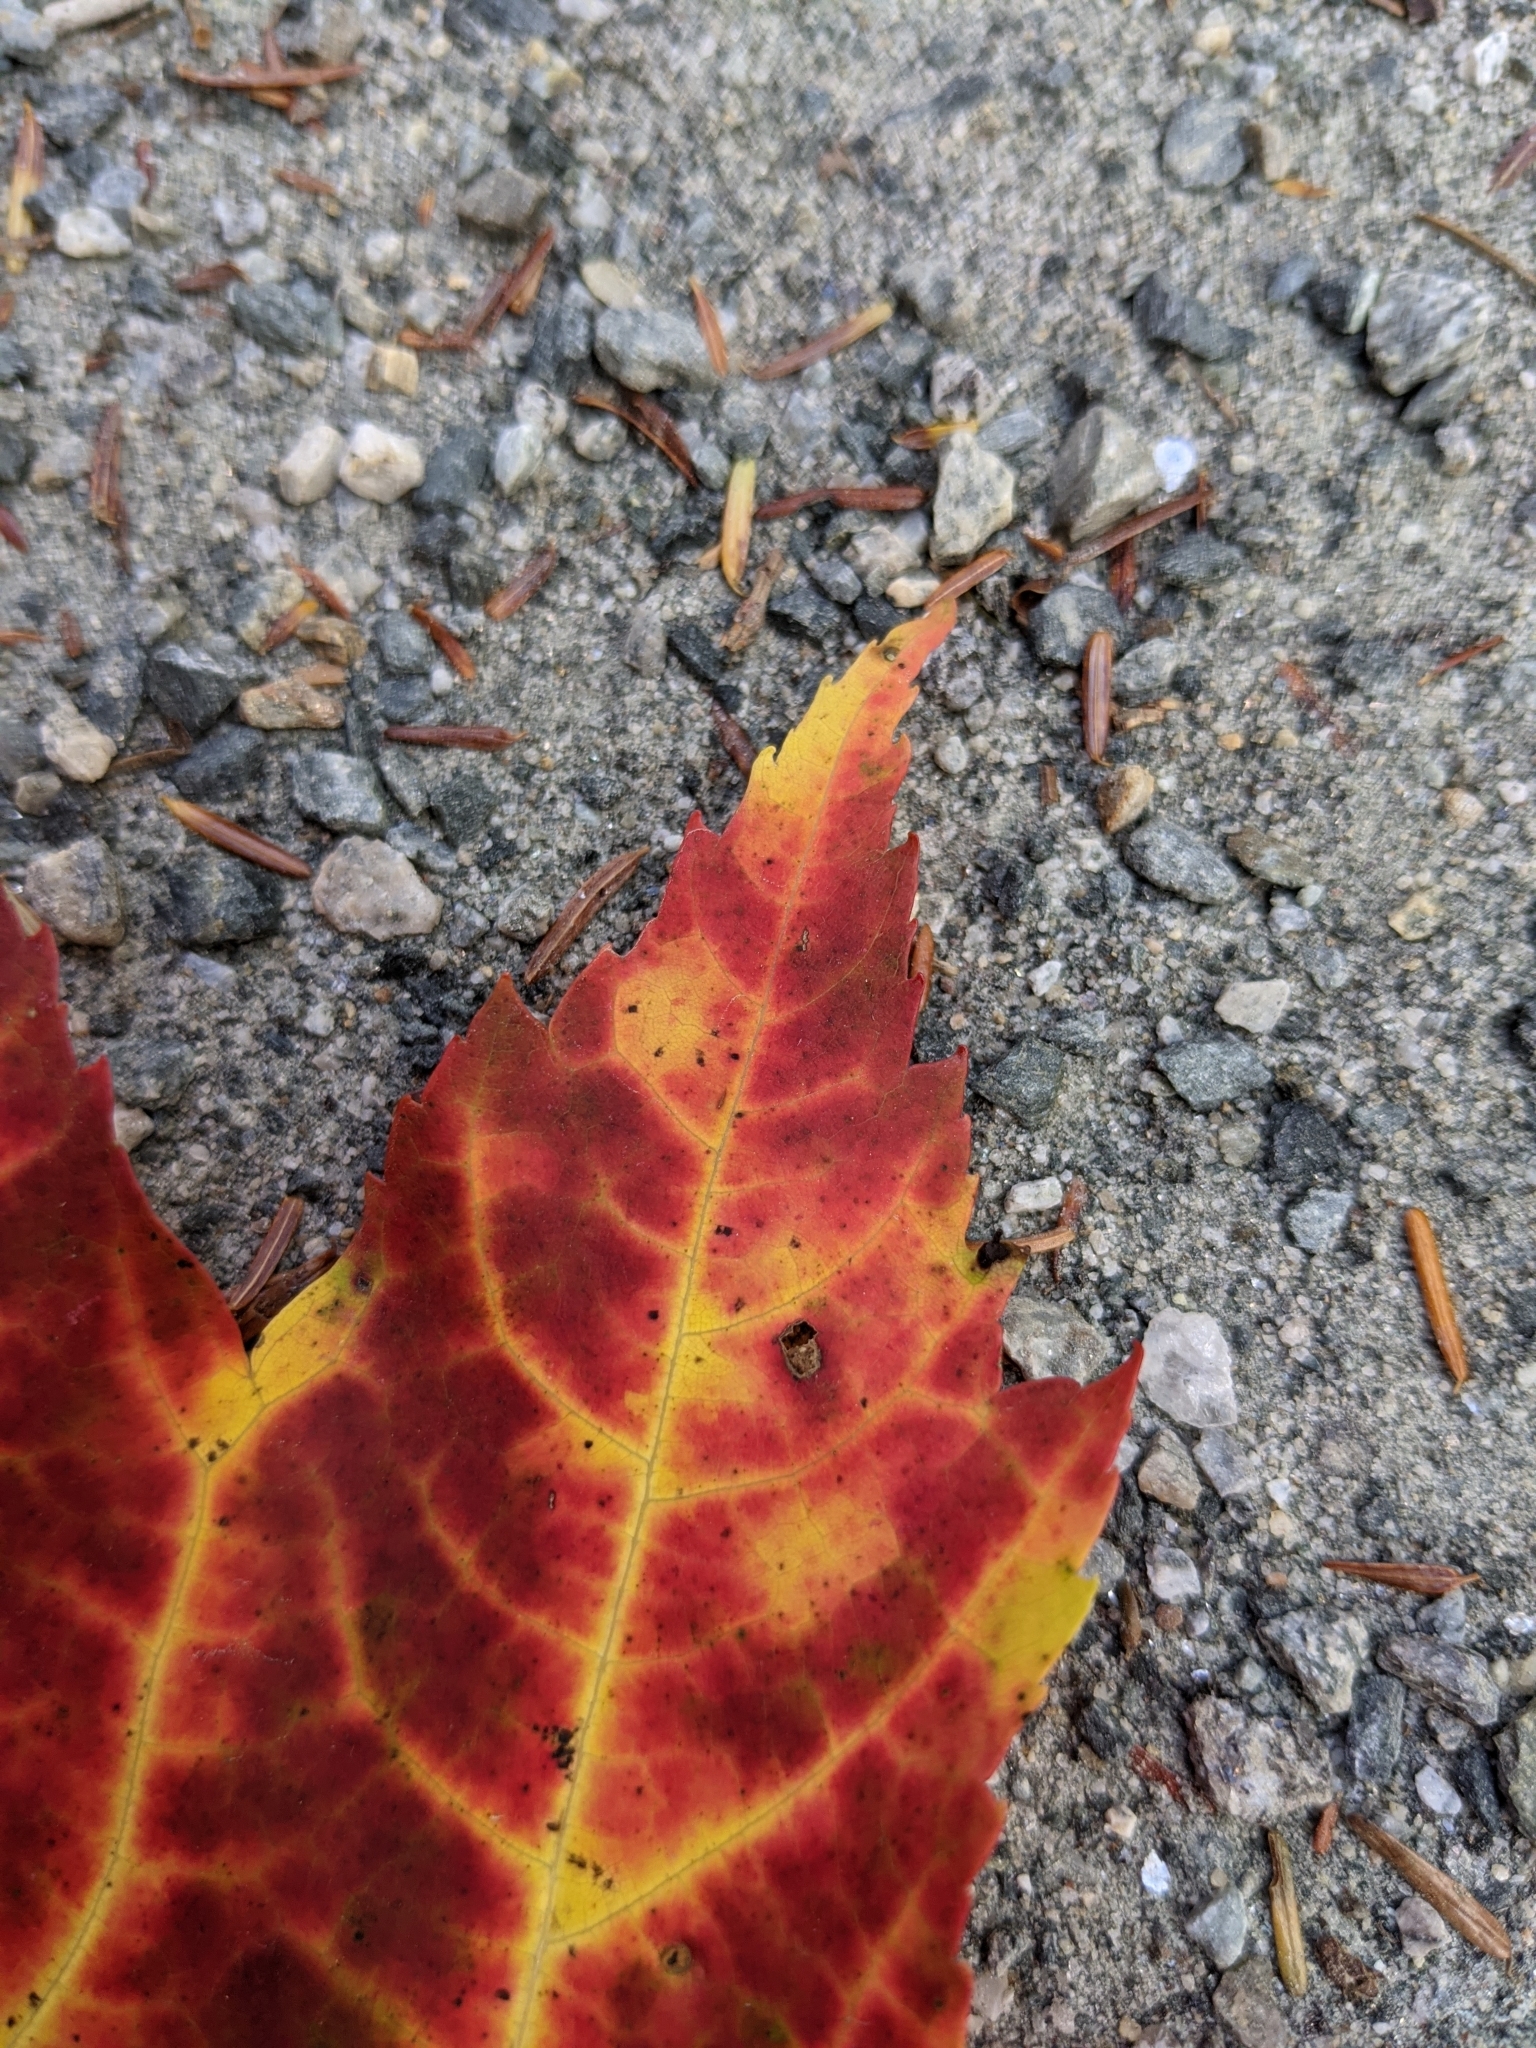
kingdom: Plantae
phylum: Tracheophyta
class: Magnoliopsida
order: Sapindales
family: Sapindaceae
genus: Acer
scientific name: Acer rubrum
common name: Red maple
